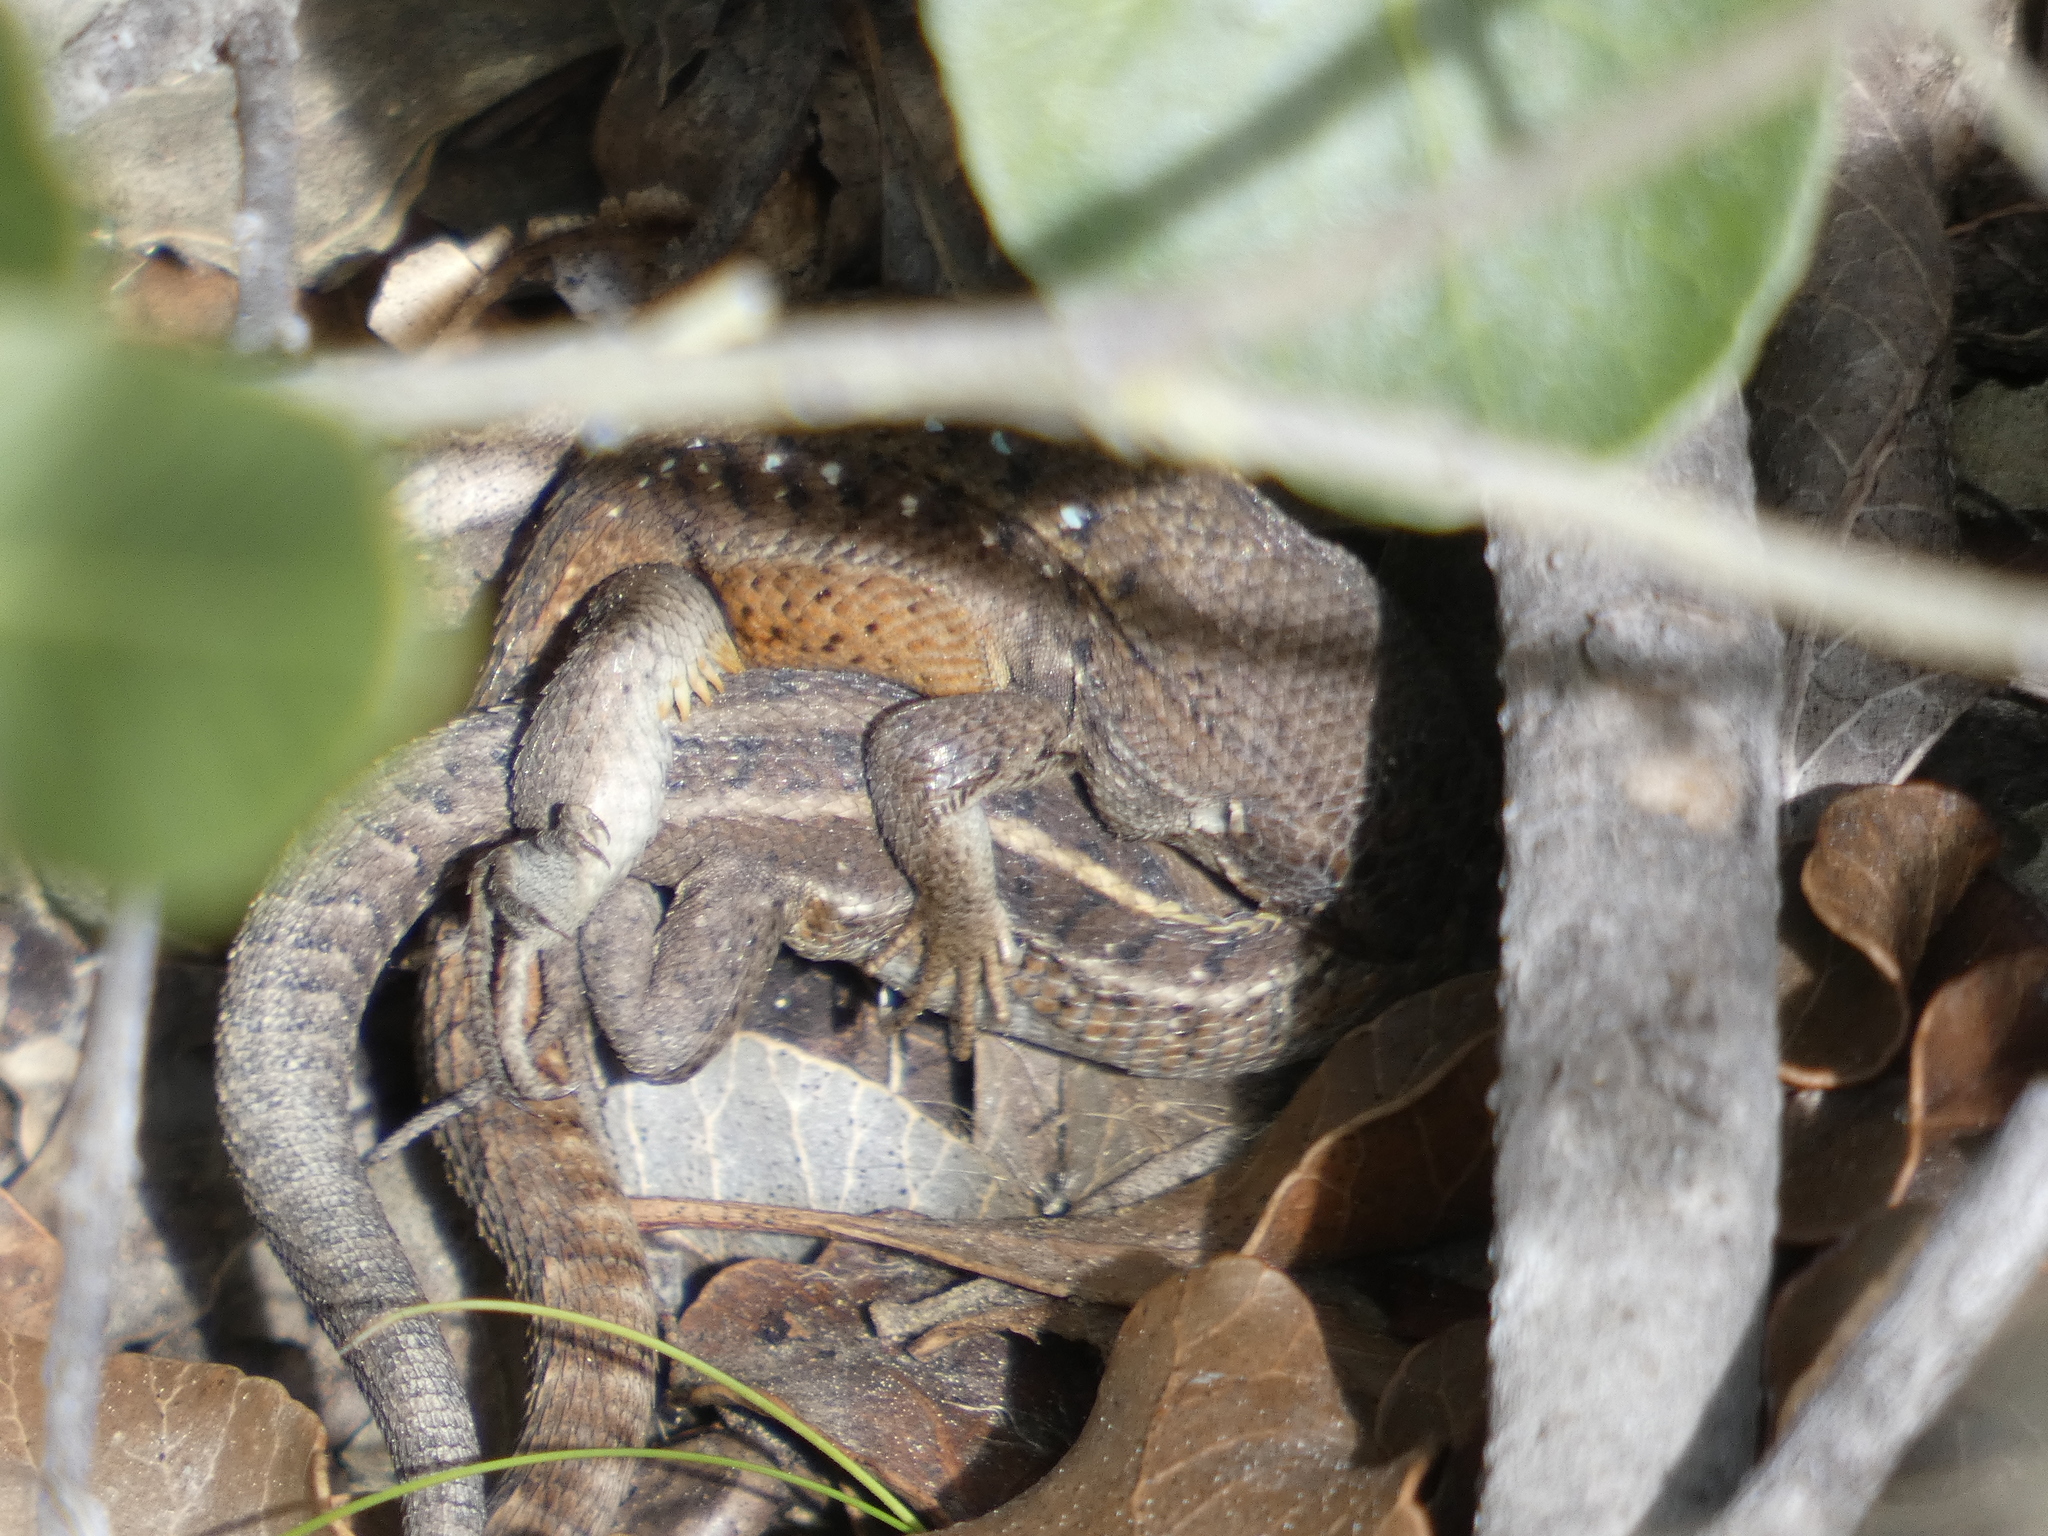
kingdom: Animalia
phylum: Chordata
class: Squamata
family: Liolaemidae
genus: Liolaemus
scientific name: Liolaemus lemniscatus
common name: Wreath tree iguana
